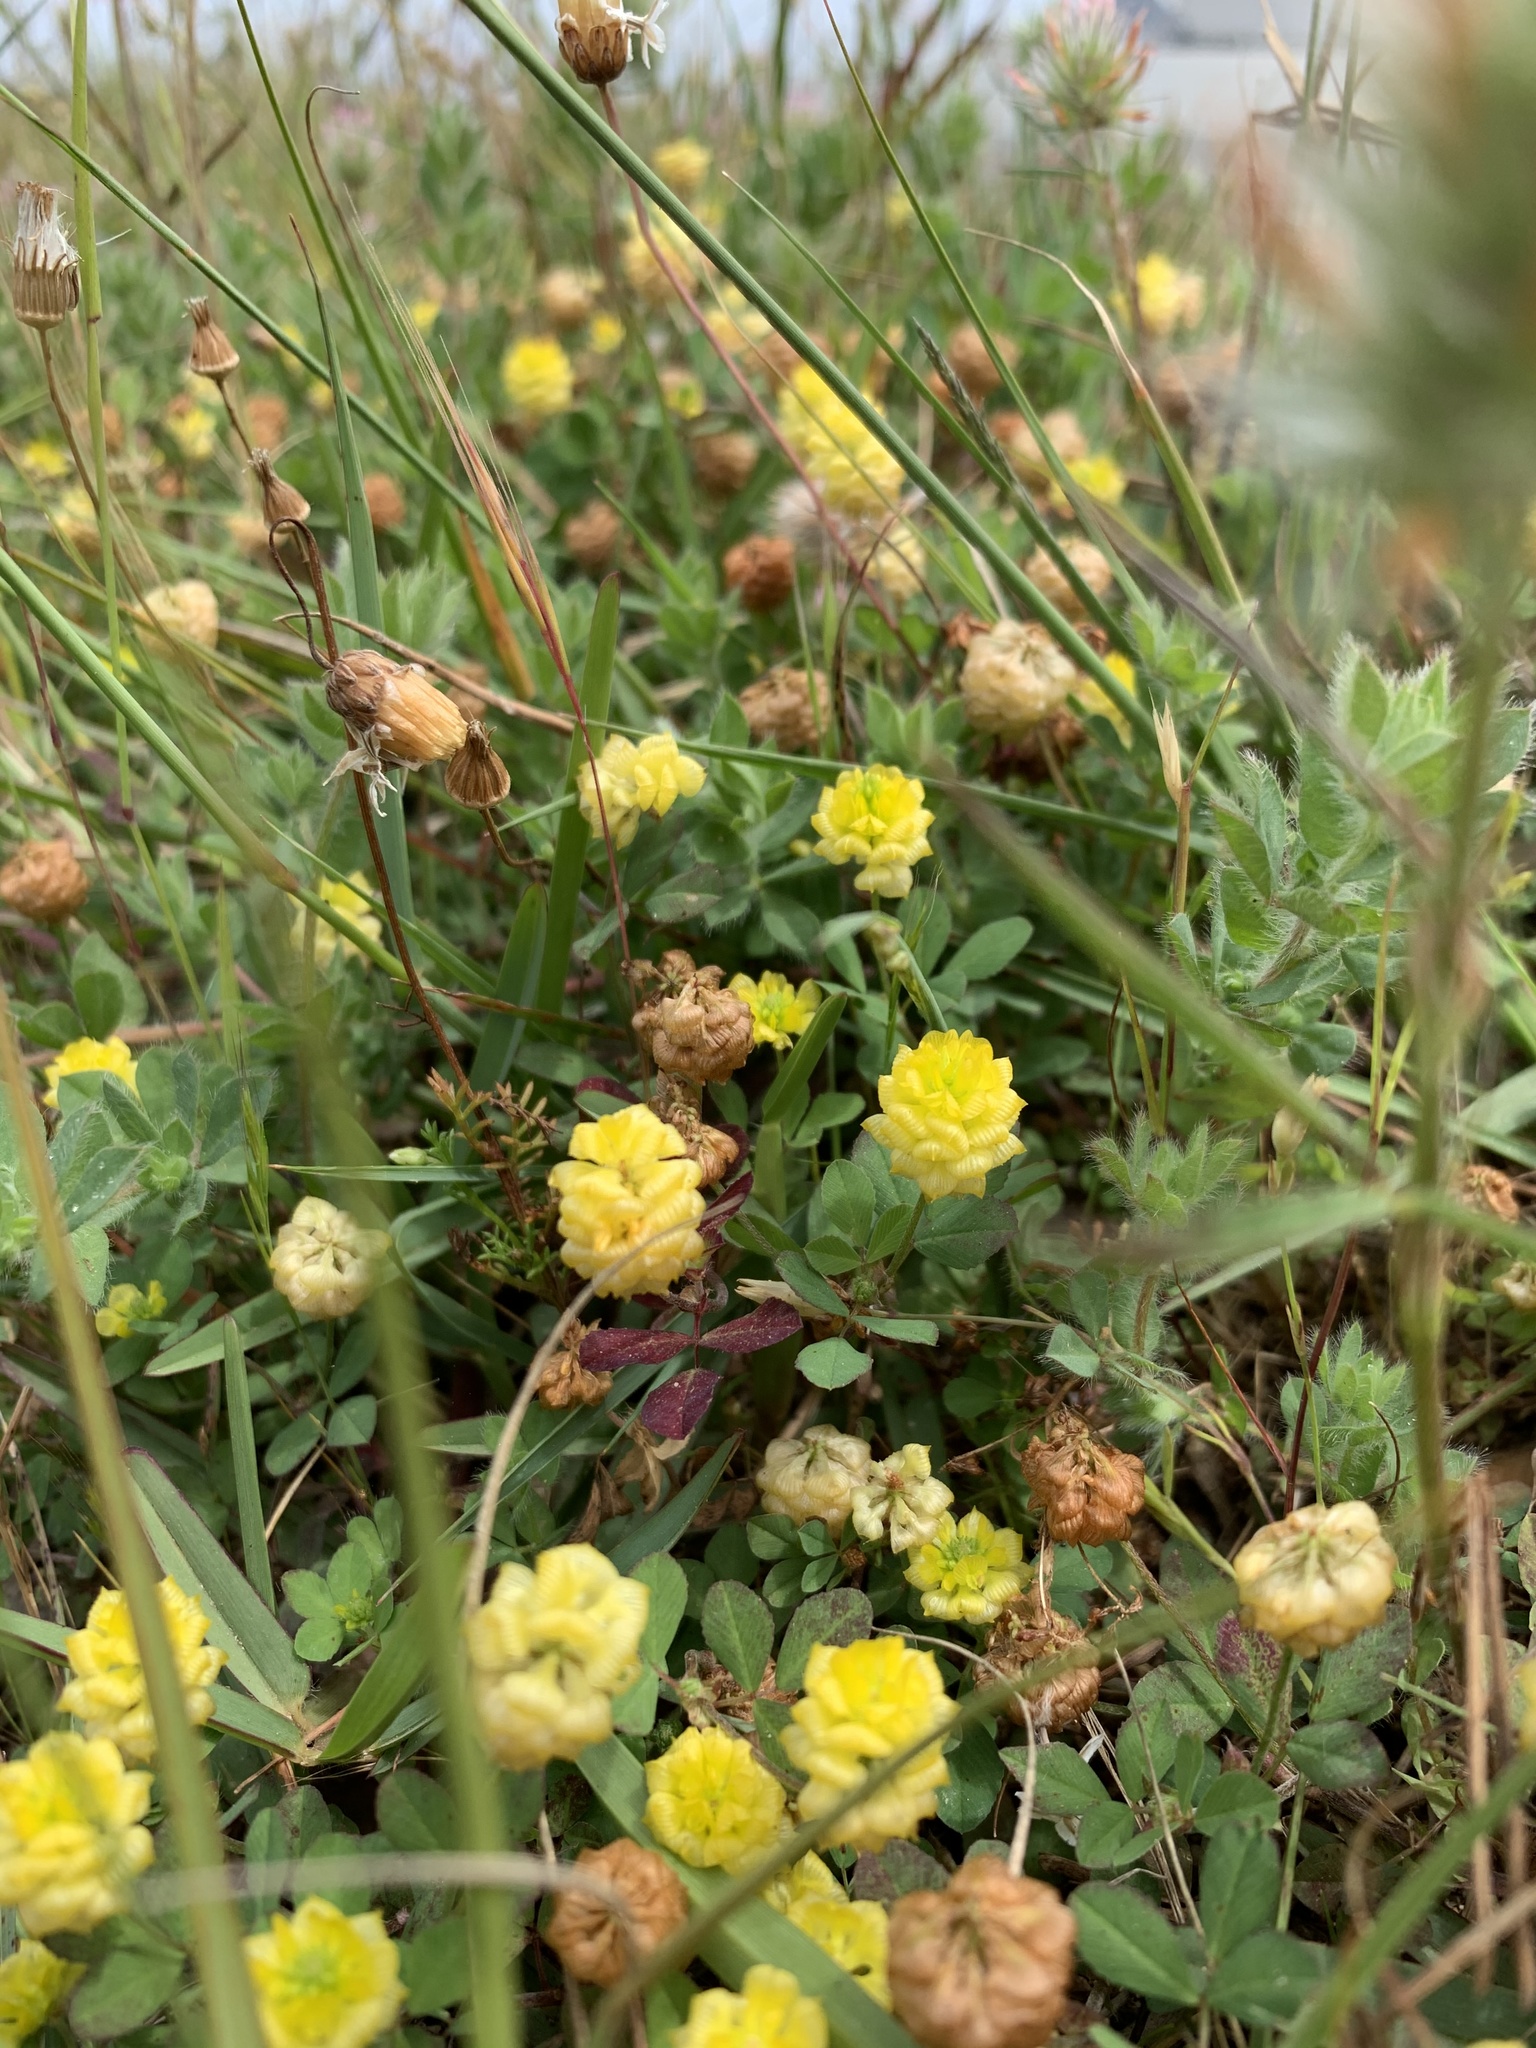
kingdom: Plantae
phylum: Tracheophyta
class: Magnoliopsida
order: Fabales
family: Fabaceae
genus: Trifolium
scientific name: Trifolium campestre
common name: Field clover
